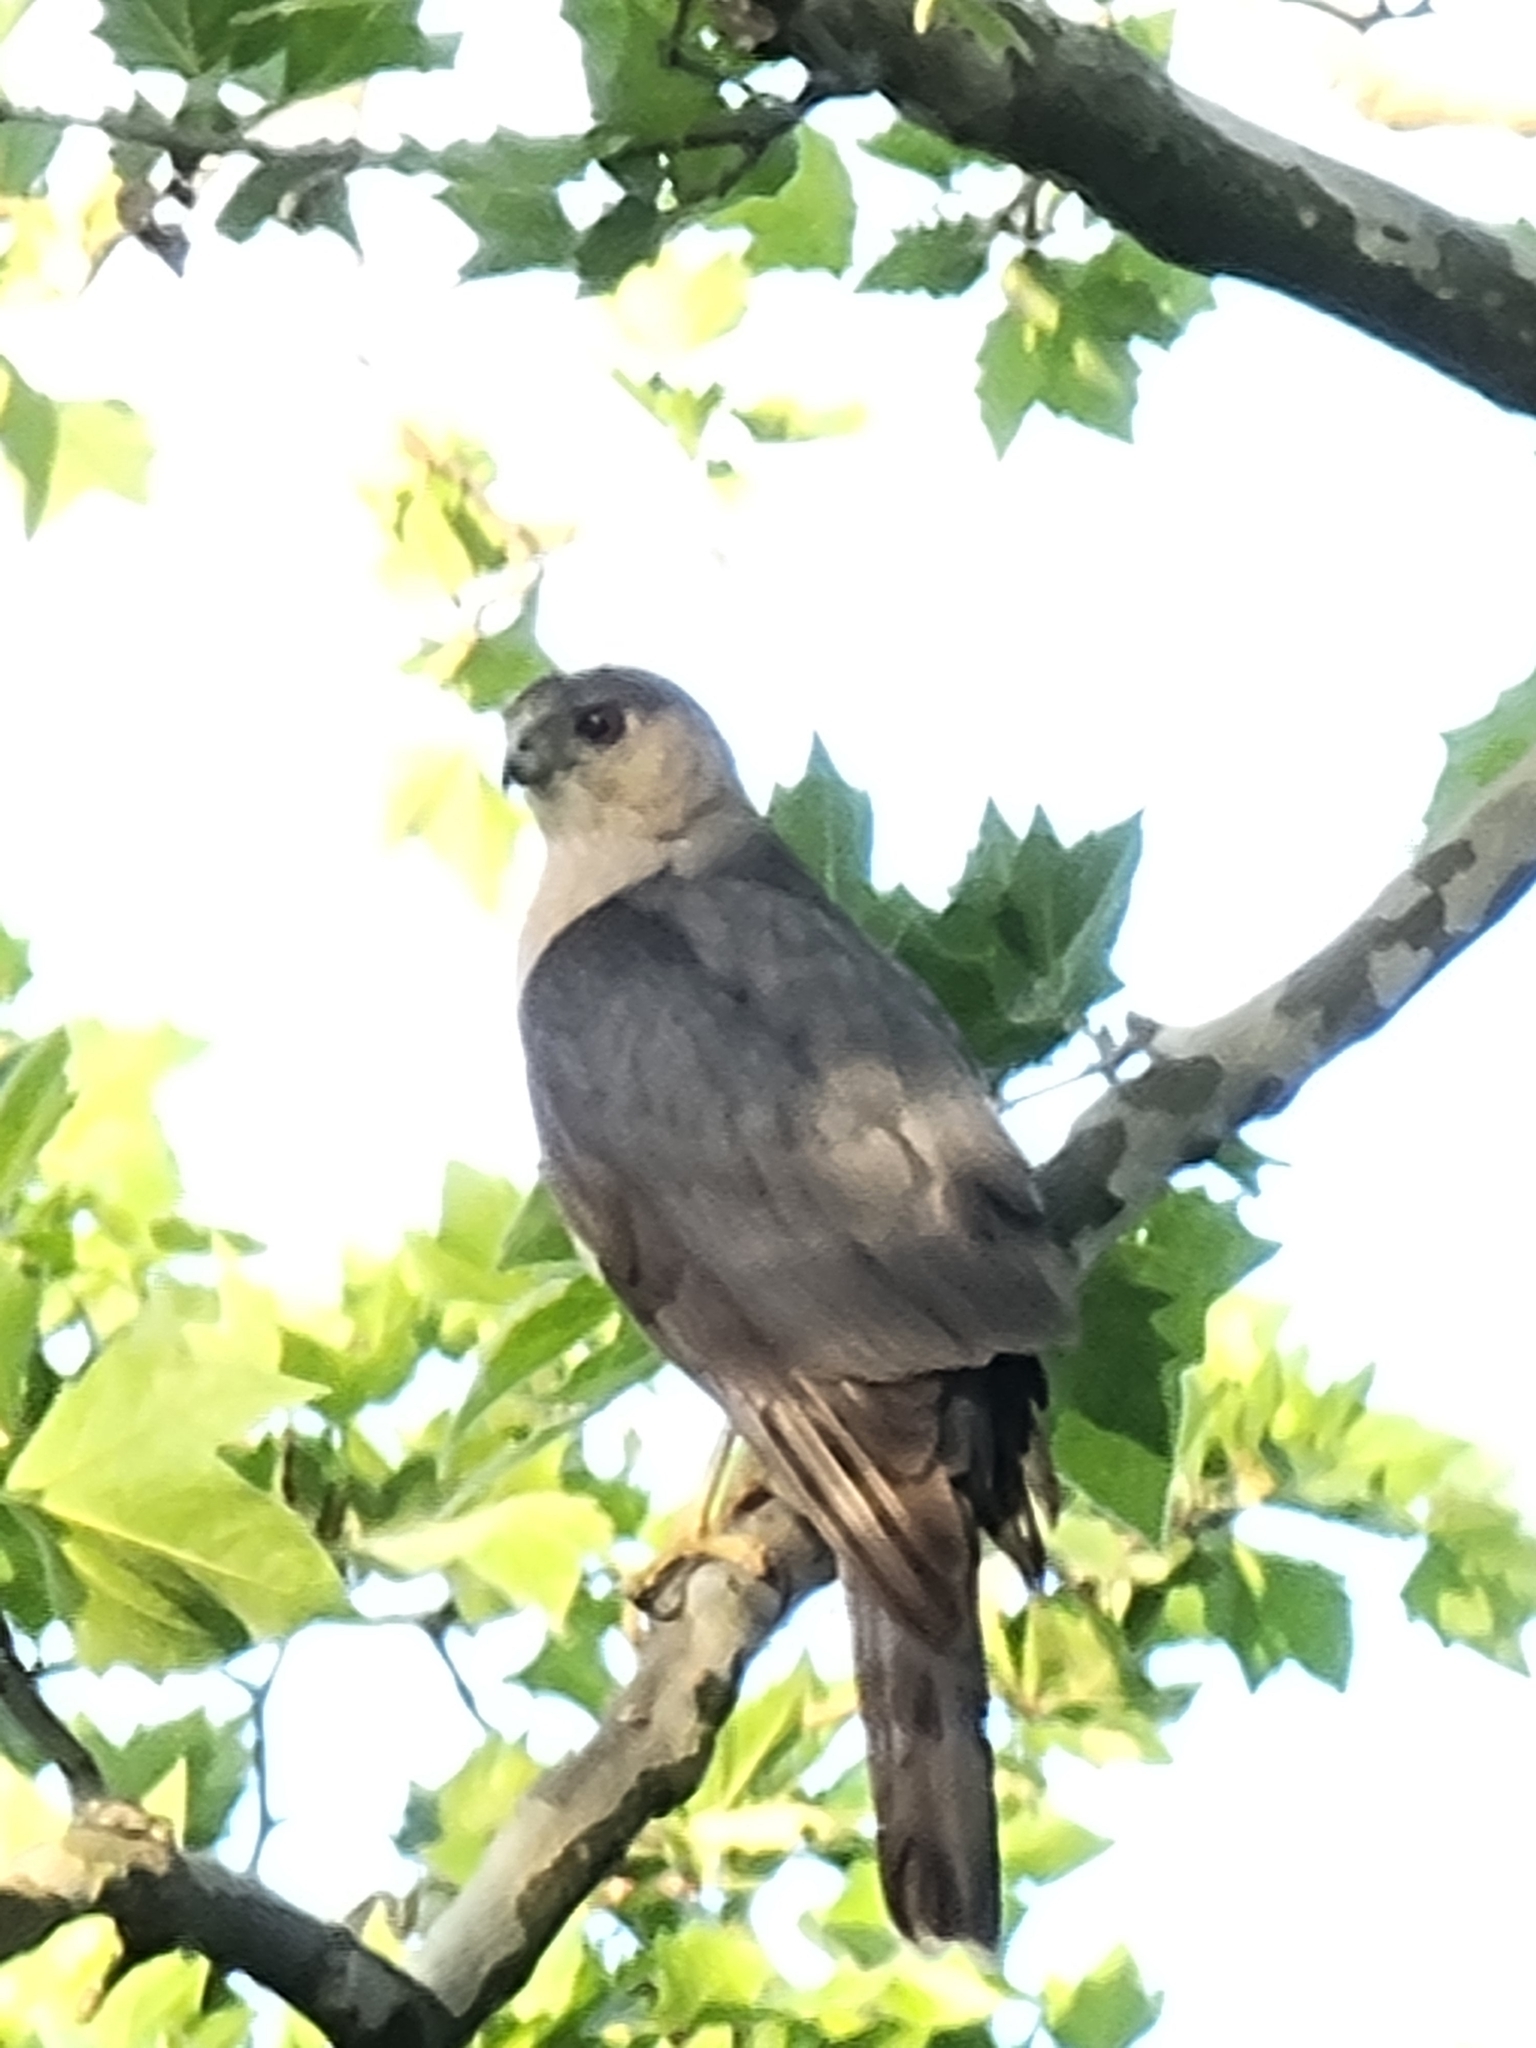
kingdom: Animalia
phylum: Chordata
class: Aves
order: Accipitriformes
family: Accipitridae
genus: Accipiter
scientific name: Accipiter cooperii
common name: Cooper's hawk
